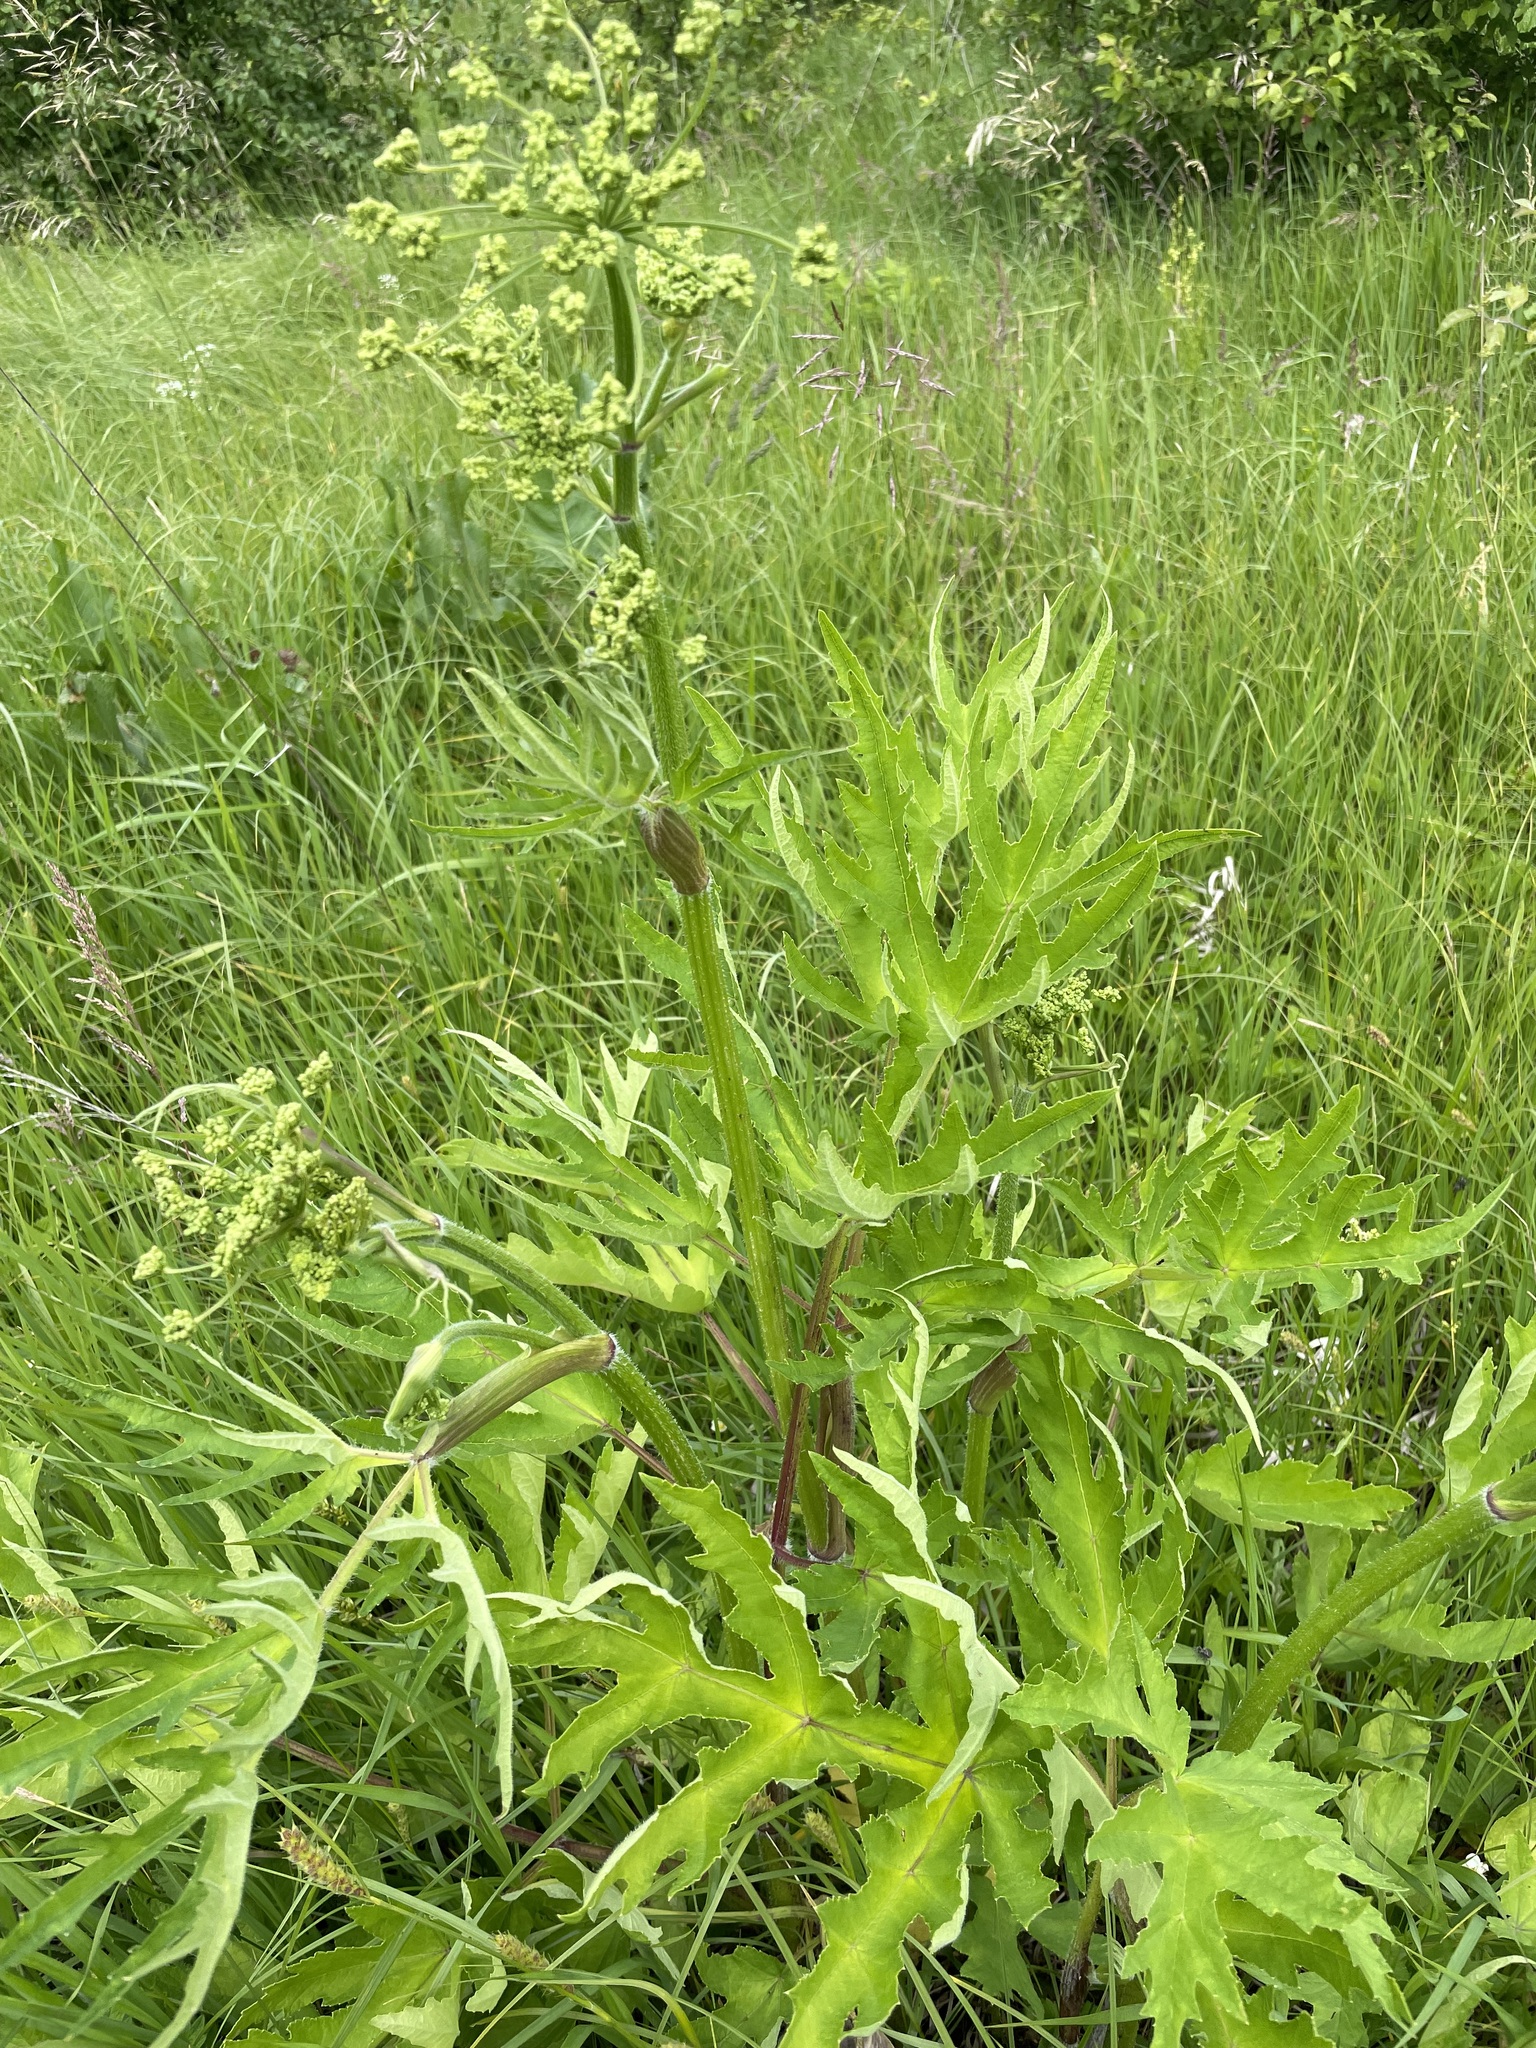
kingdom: Plantae
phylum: Tracheophyta
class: Magnoliopsida
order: Apiales
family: Apiaceae
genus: Heracleum
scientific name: Heracleum sphondylium
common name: Hogweed
